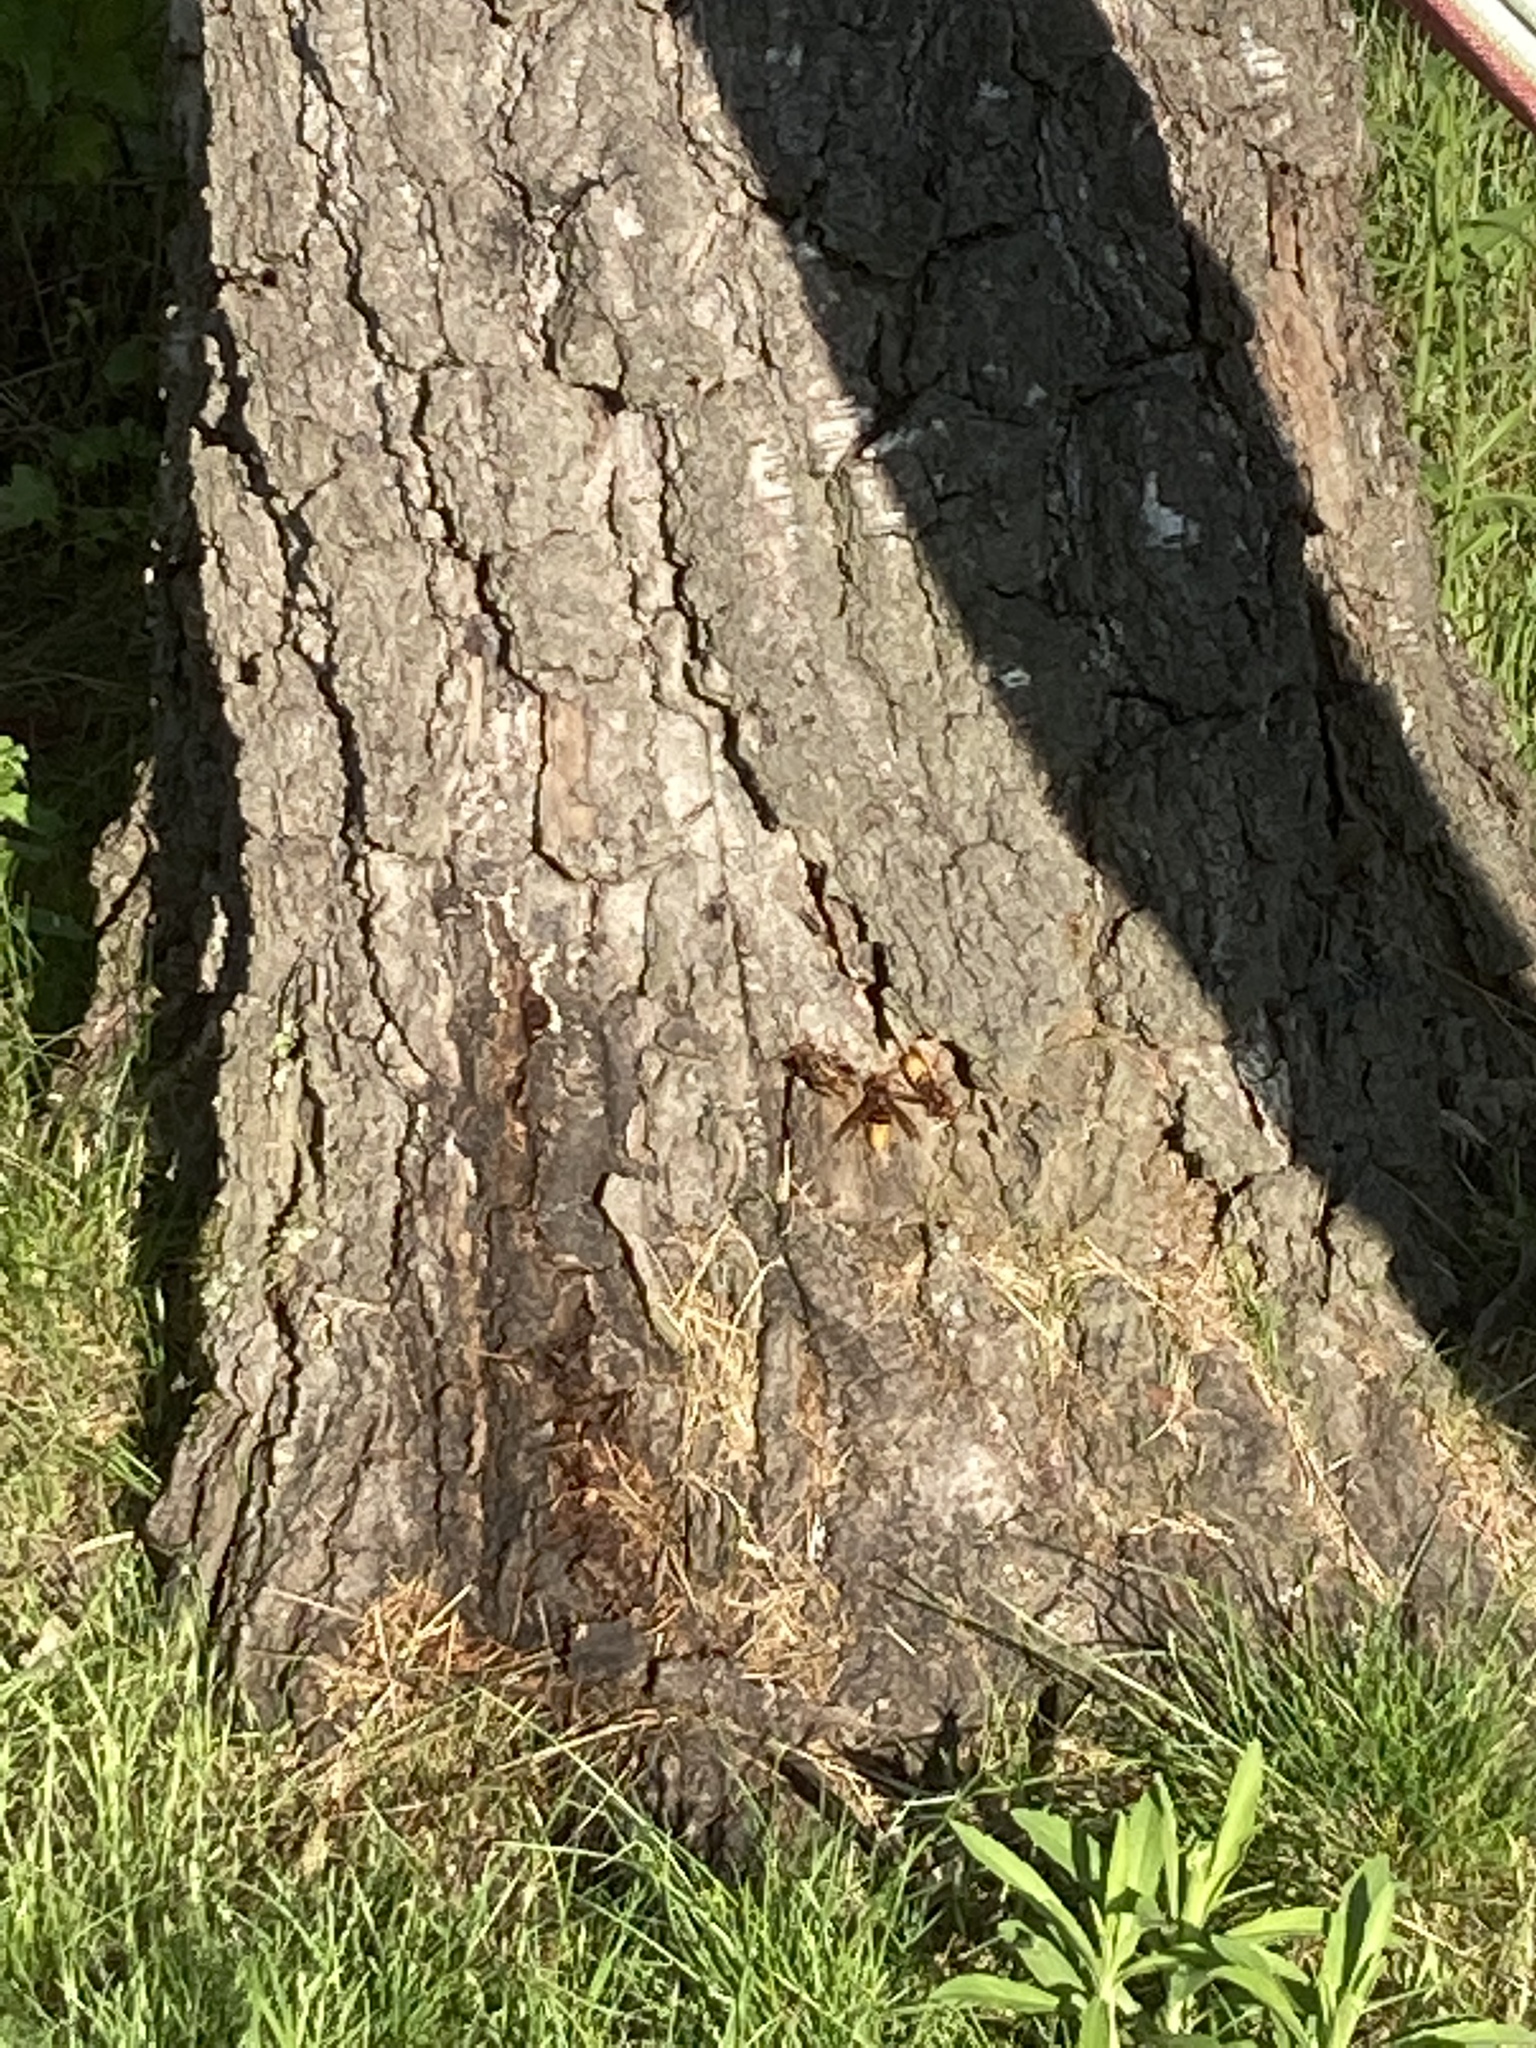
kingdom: Animalia
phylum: Arthropoda
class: Insecta
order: Hymenoptera
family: Vespidae
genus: Vespa
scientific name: Vespa crabro
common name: Hornet
